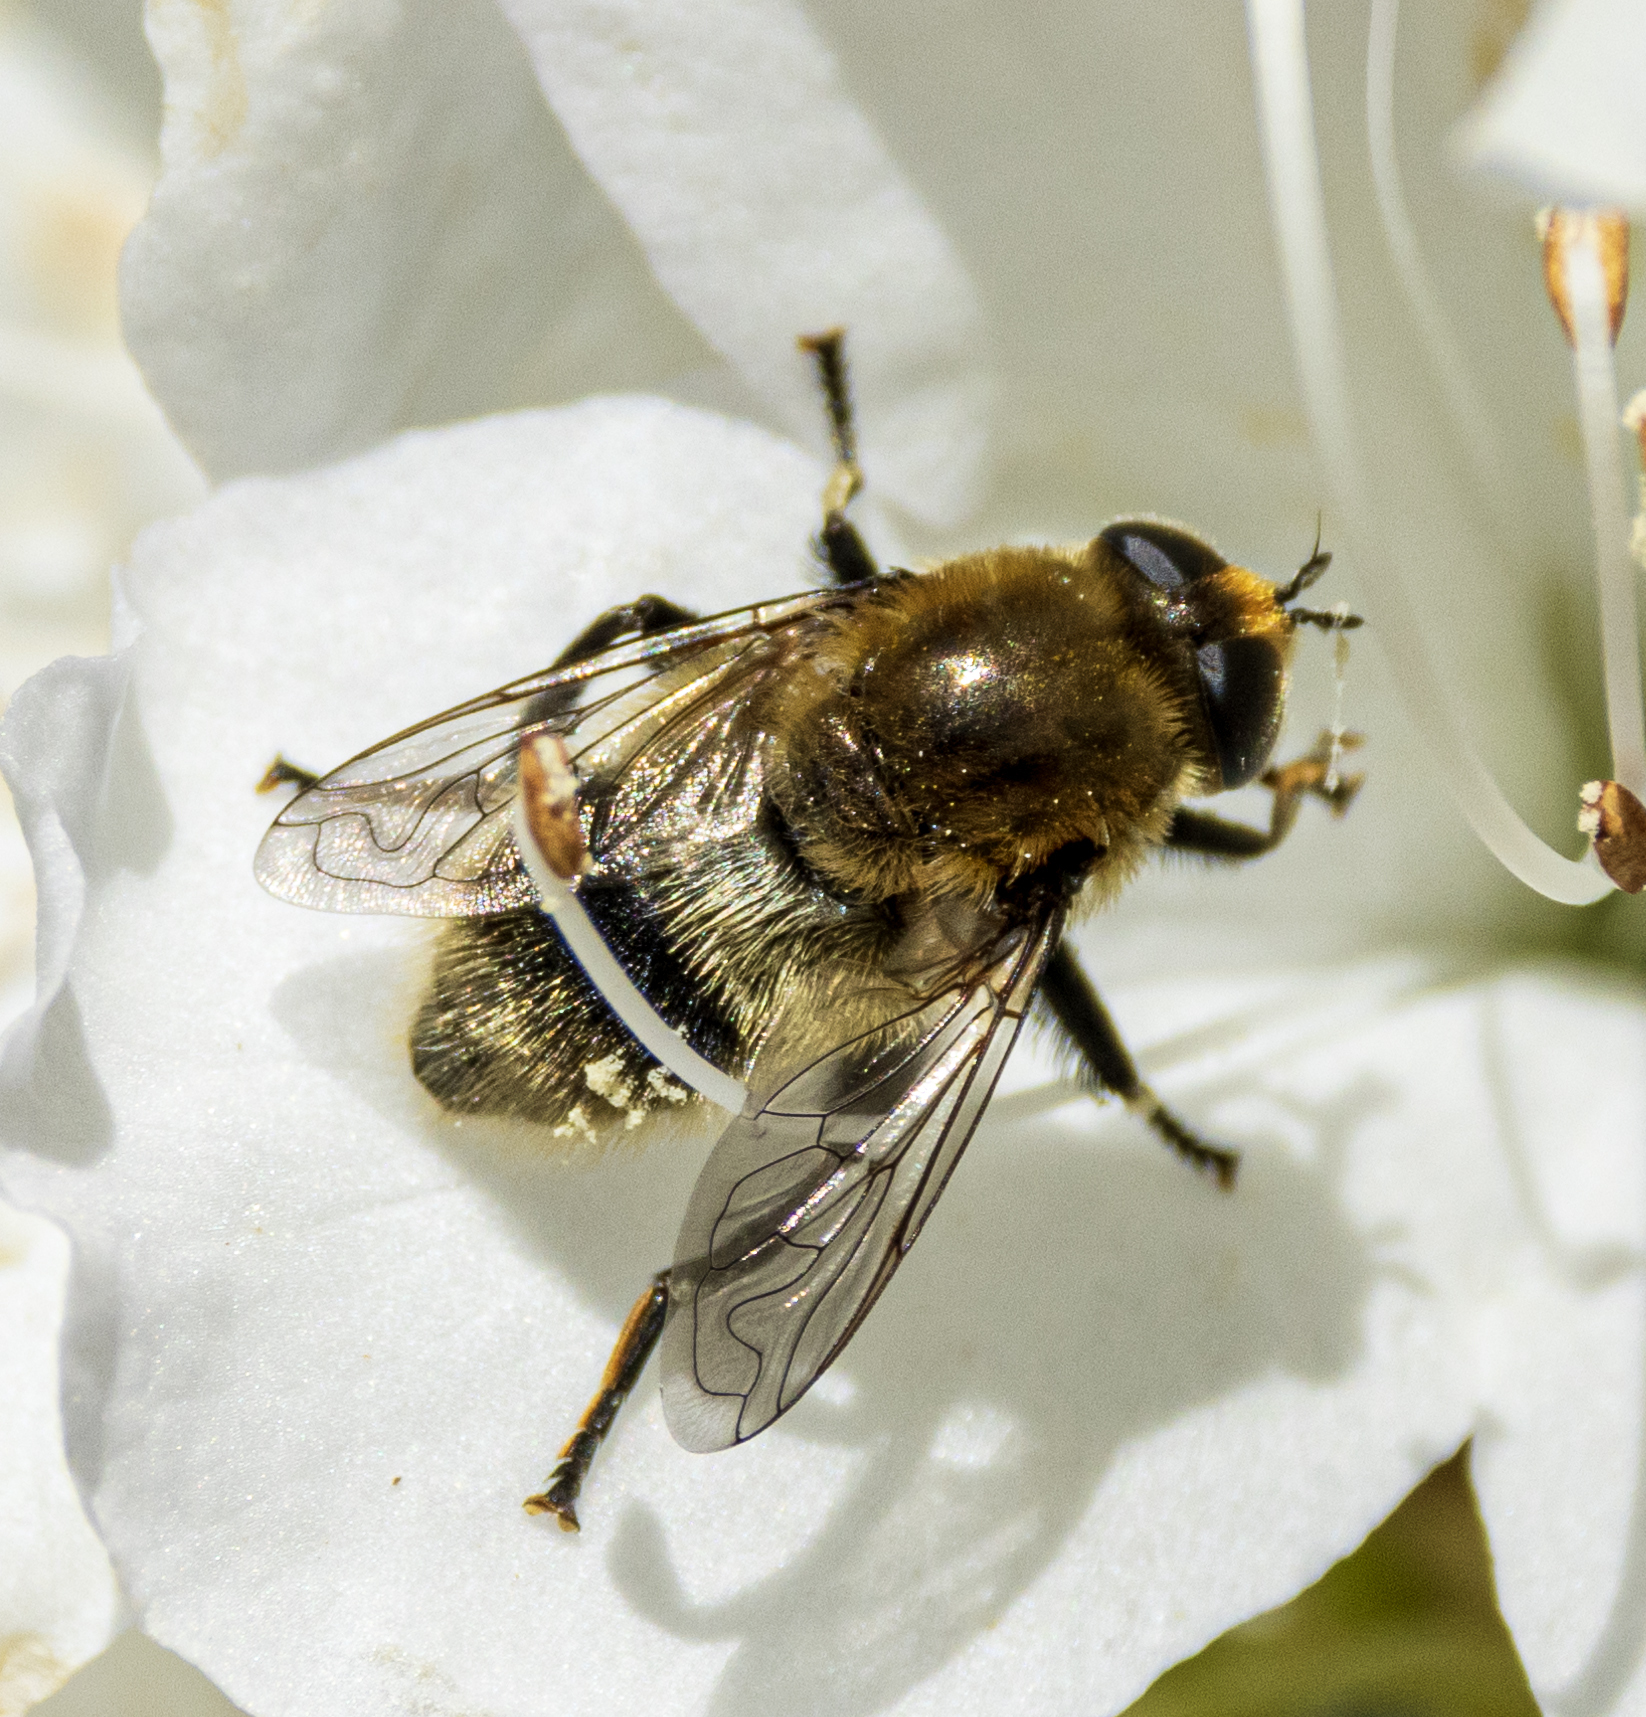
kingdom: Animalia
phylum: Arthropoda
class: Insecta
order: Diptera
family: Syrphidae
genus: Merodon
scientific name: Merodon equestris
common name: Greater bulb-fly
